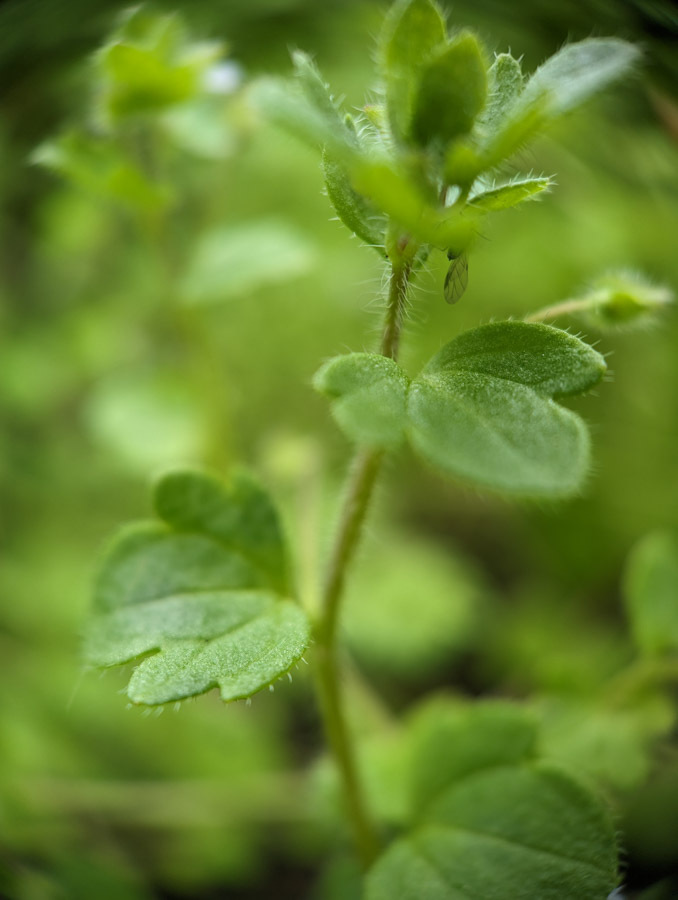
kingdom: Plantae
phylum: Tracheophyta
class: Magnoliopsida
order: Lamiales
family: Plantaginaceae
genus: Veronica
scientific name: Veronica sublobata
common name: False ivy-leaved speedwell
